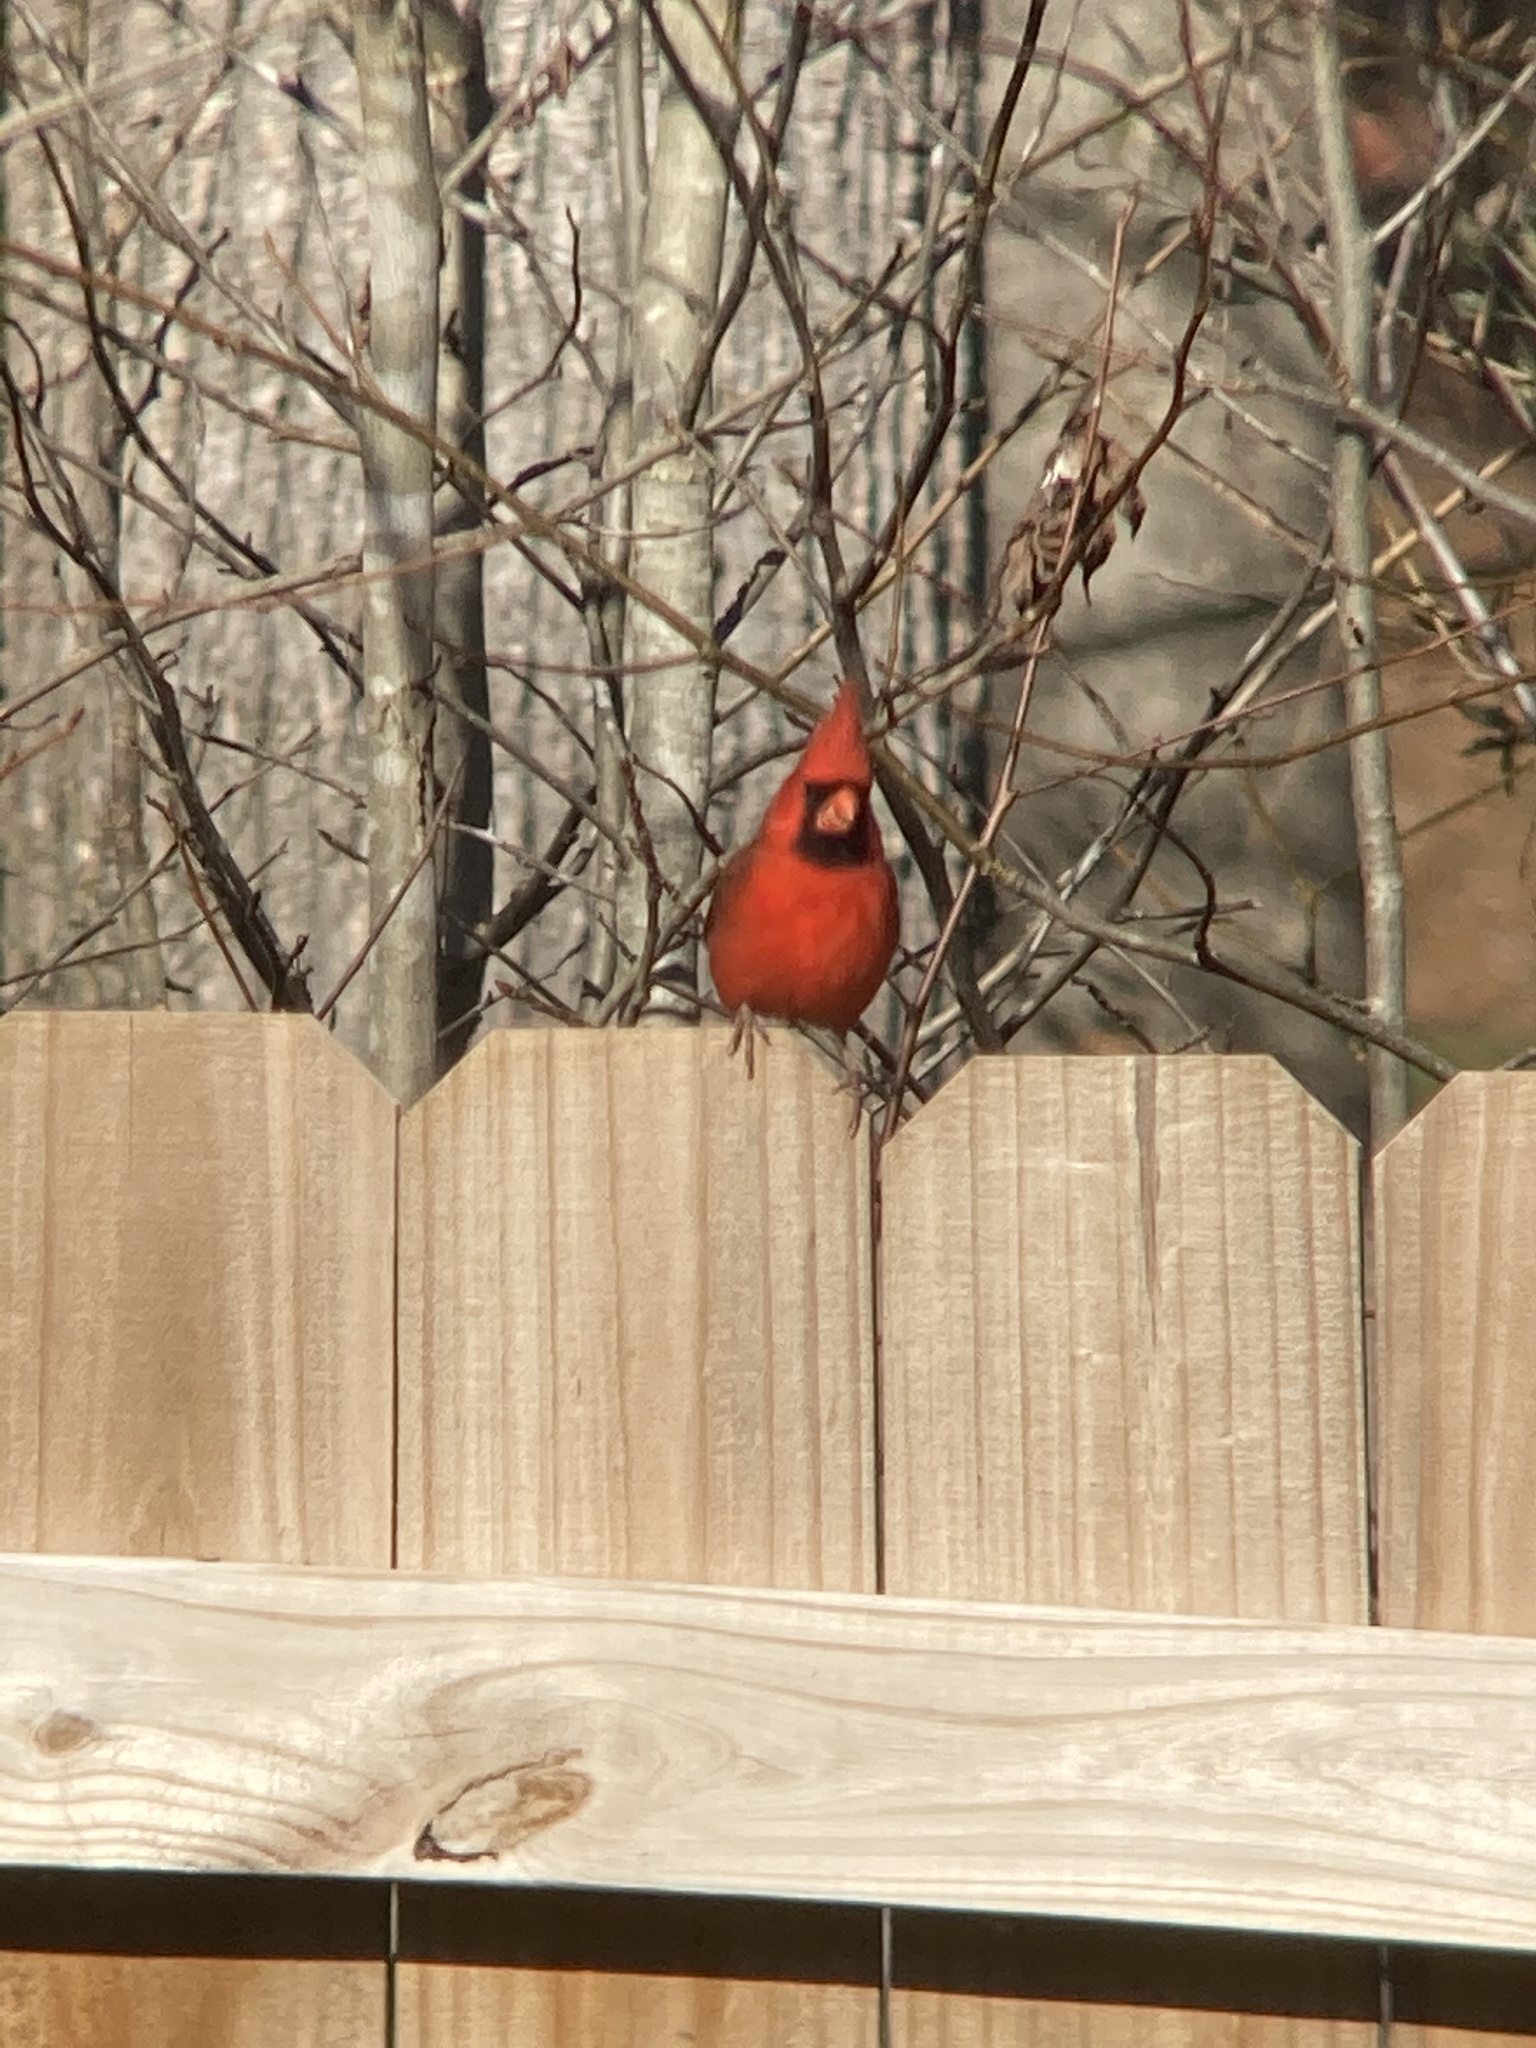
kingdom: Animalia
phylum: Chordata
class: Aves
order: Passeriformes
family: Cardinalidae
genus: Cardinalis
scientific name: Cardinalis cardinalis
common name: Northern cardinal
